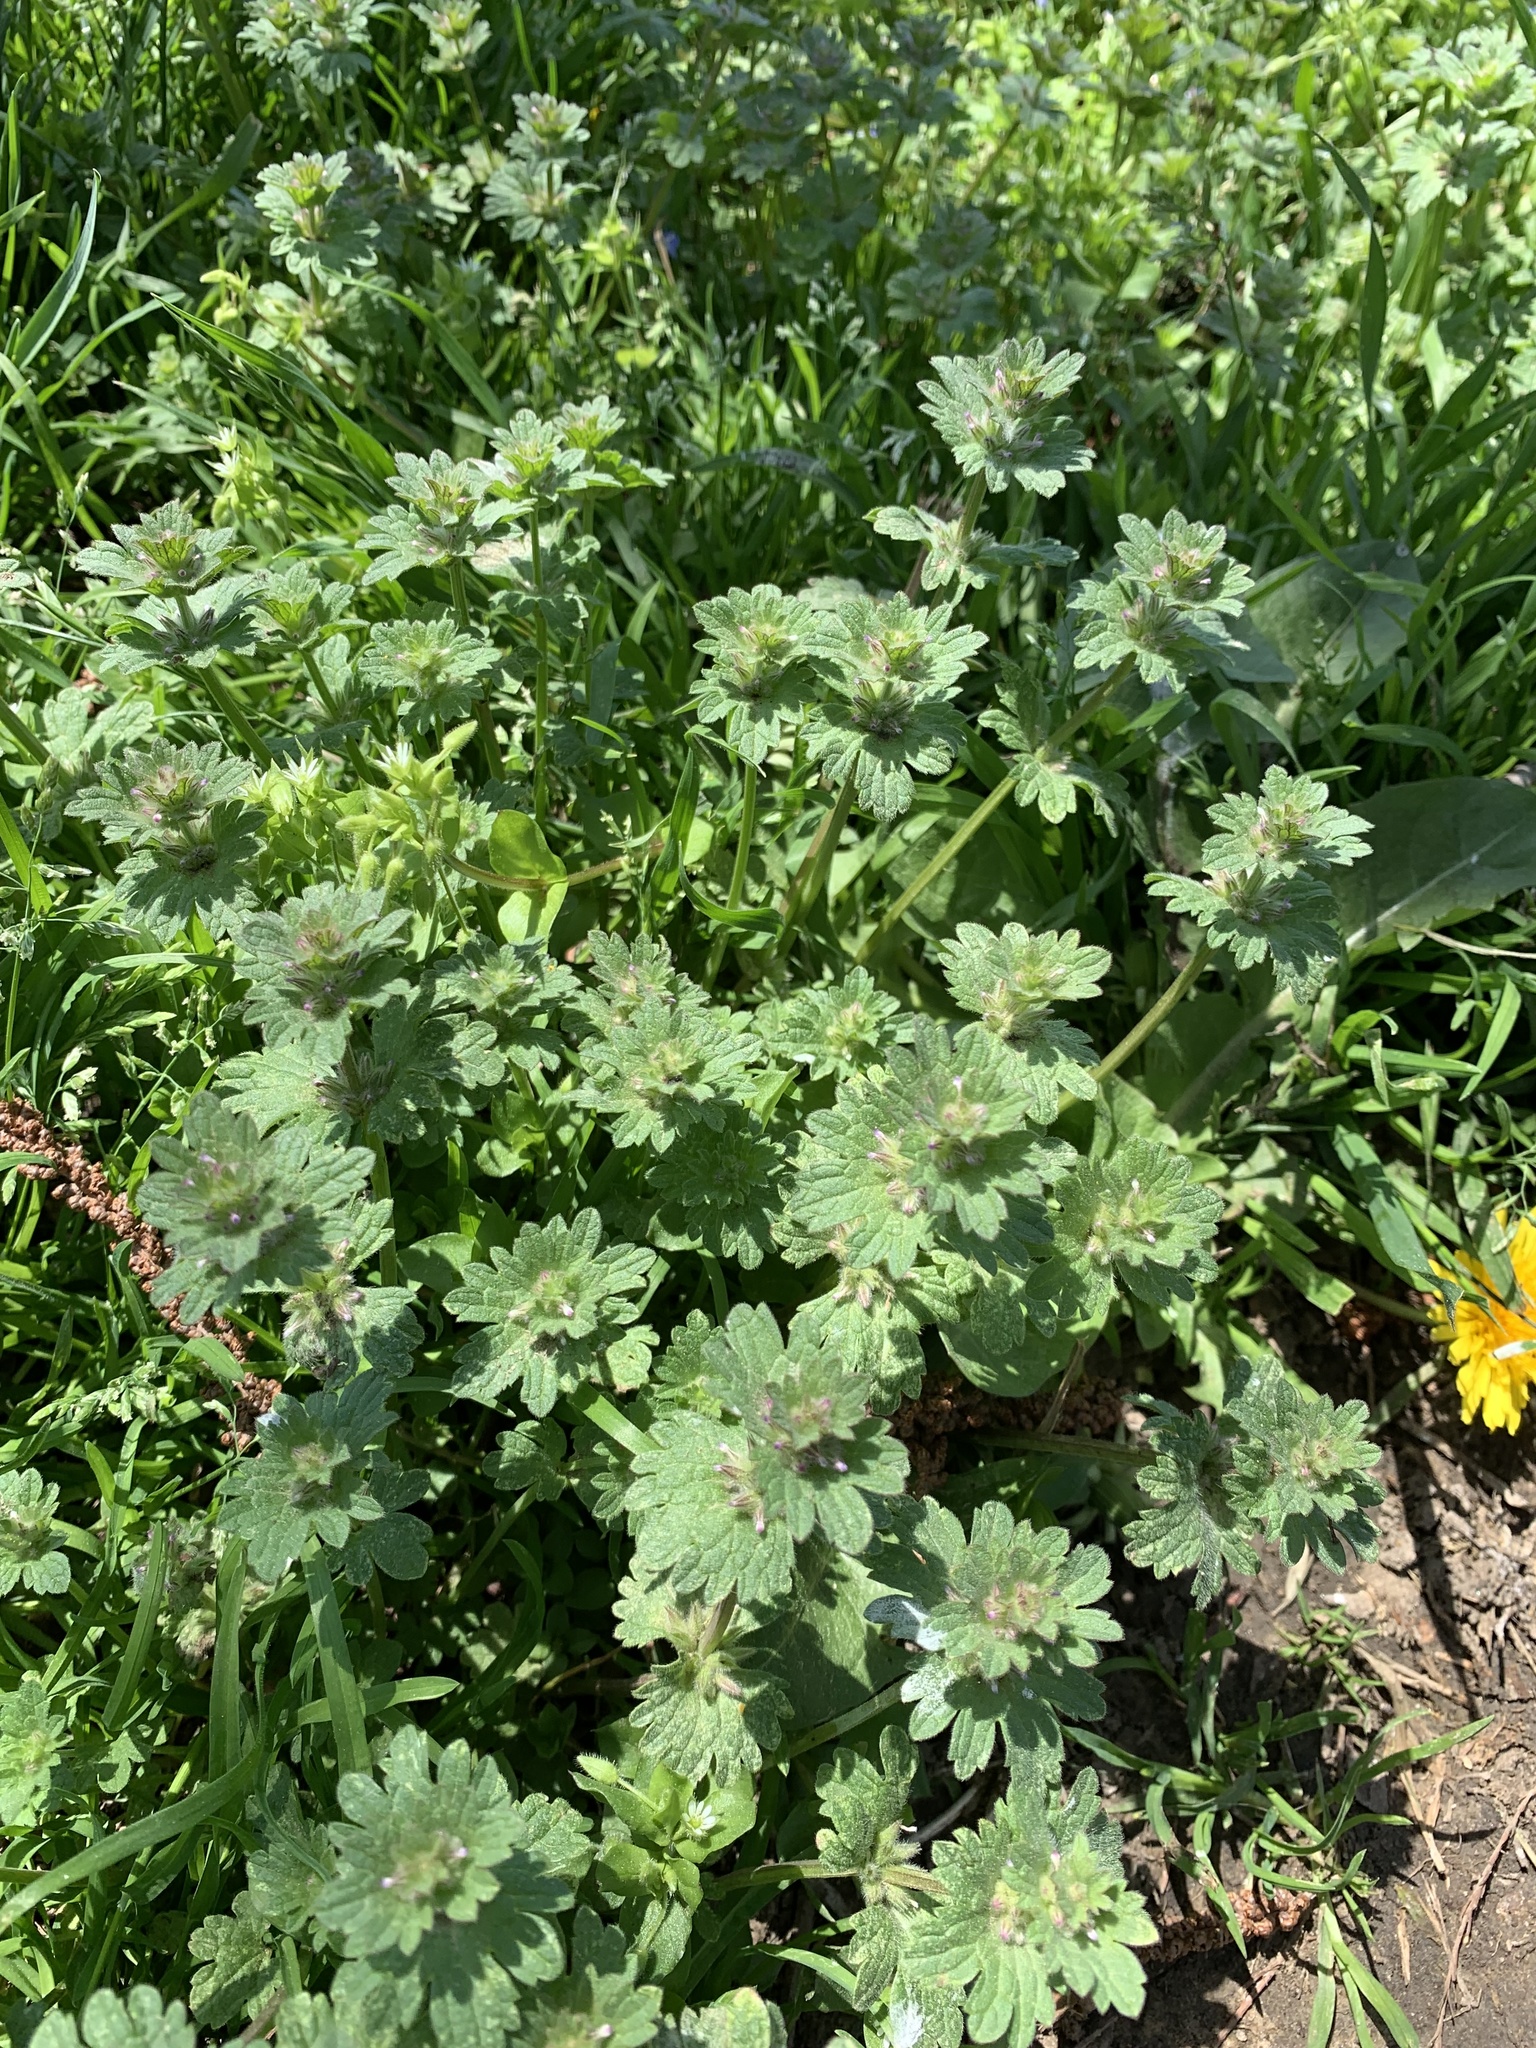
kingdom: Plantae
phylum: Tracheophyta
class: Magnoliopsida
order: Lamiales
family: Lamiaceae
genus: Lamium
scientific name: Lamium amplexicaule
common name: Henbit dead-nettle
